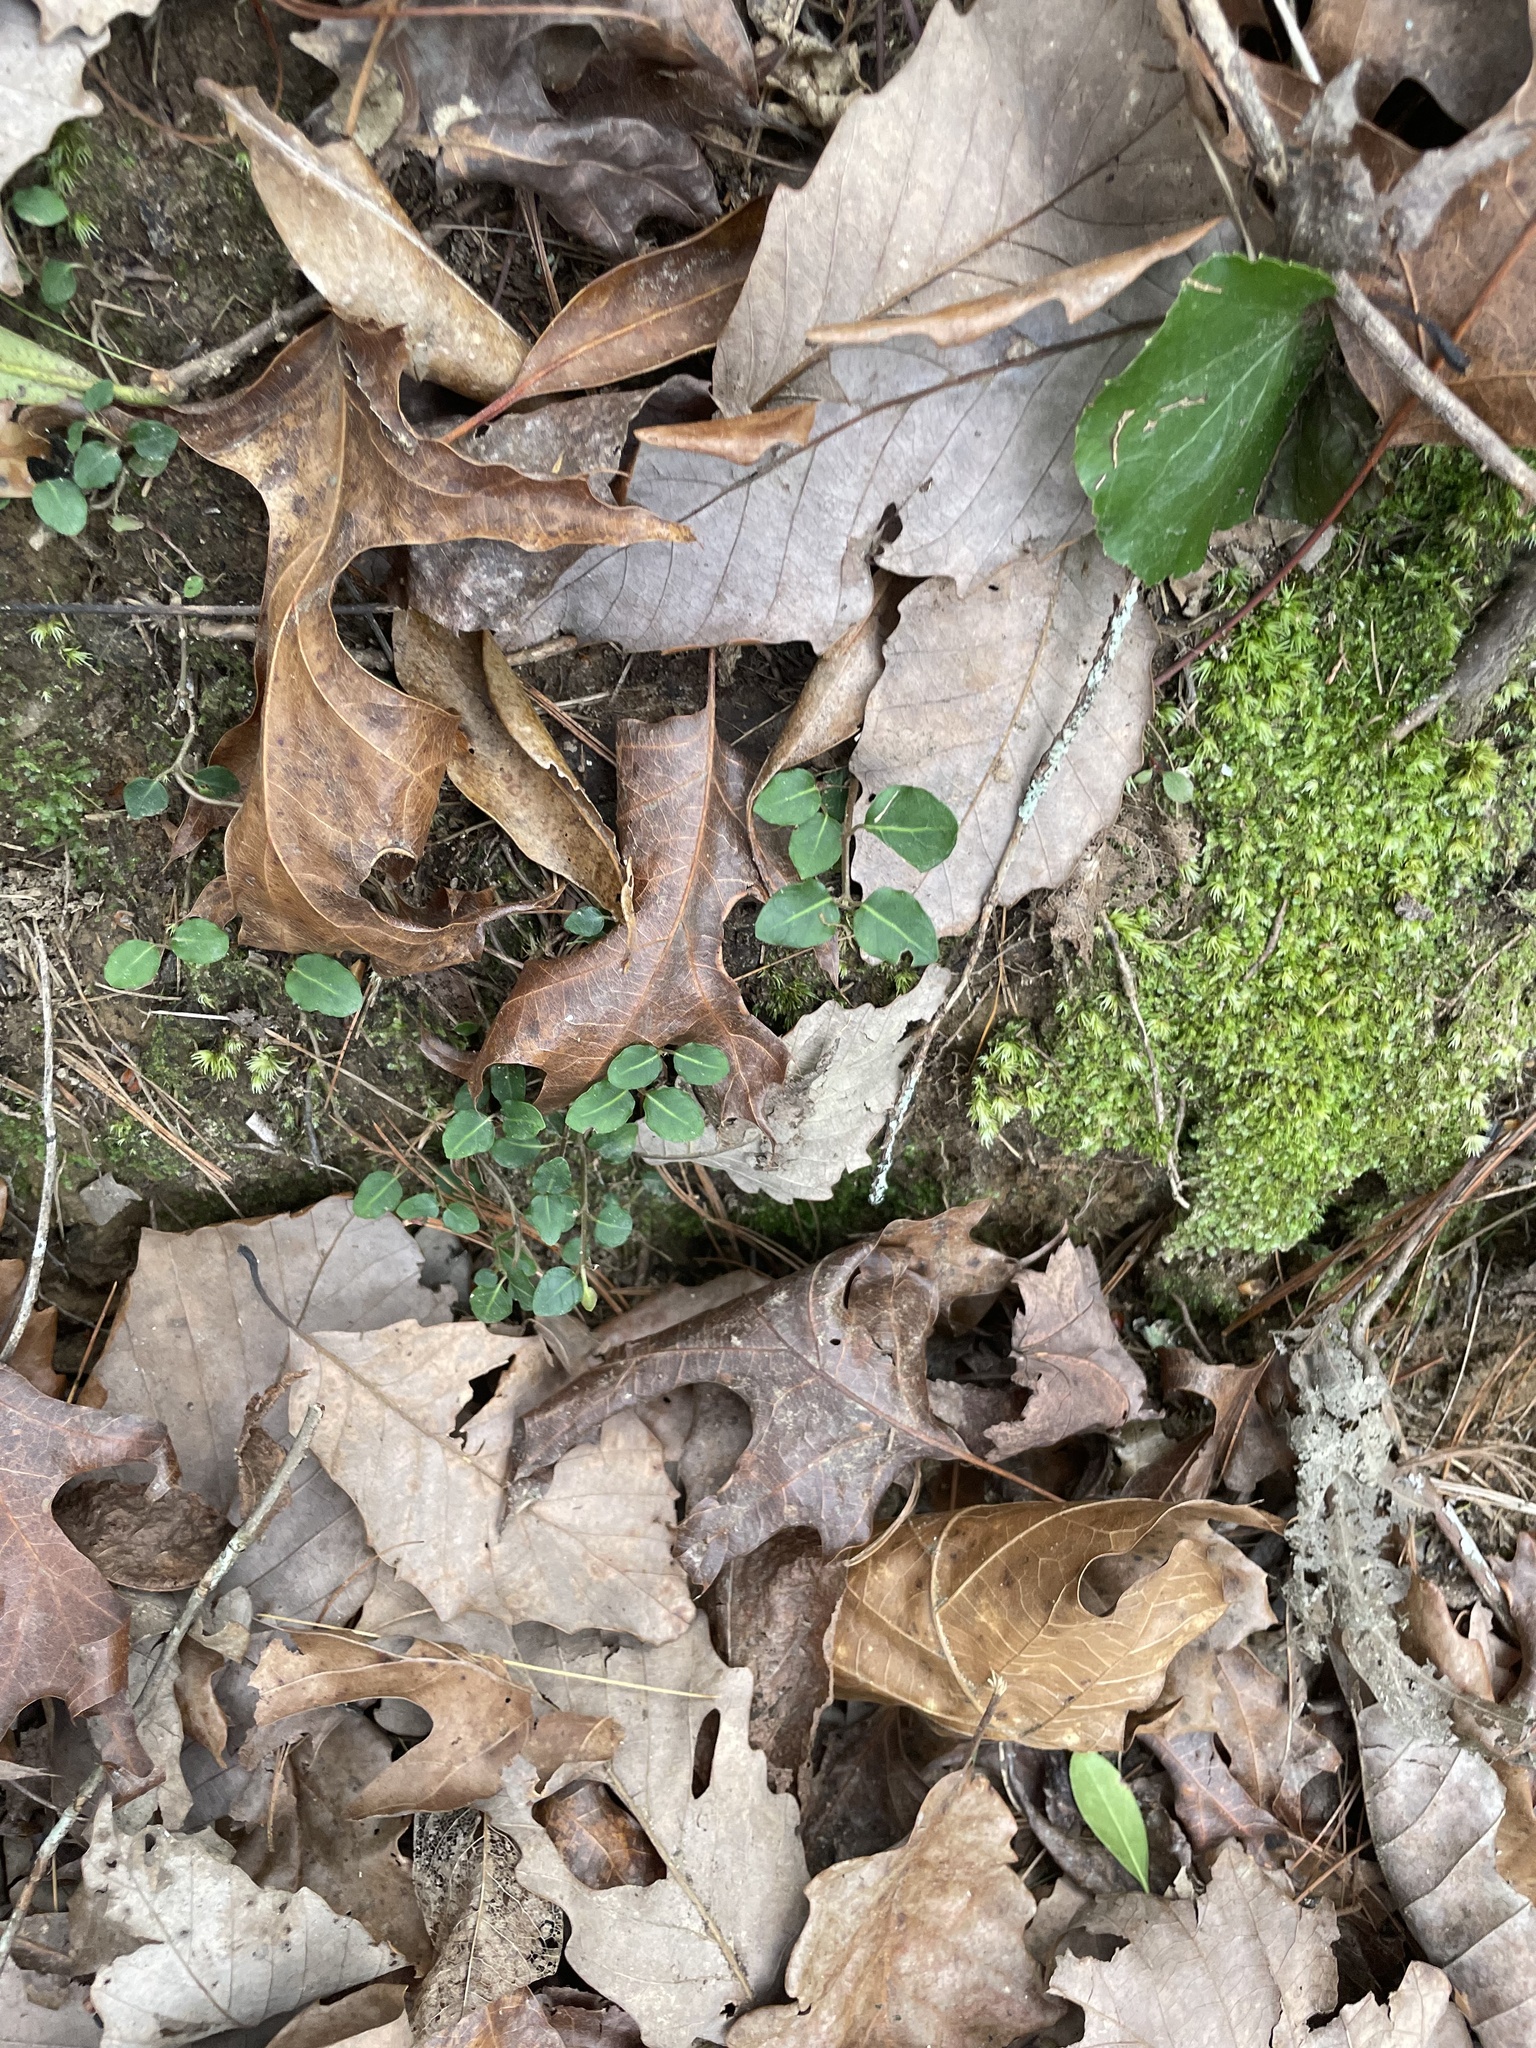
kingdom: Plantae
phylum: Tracheophyta
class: Magnoliopsida
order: Gentianales
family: Rubiaceae
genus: Mitchella
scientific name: Mitchella repens
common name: Partridge-berry
